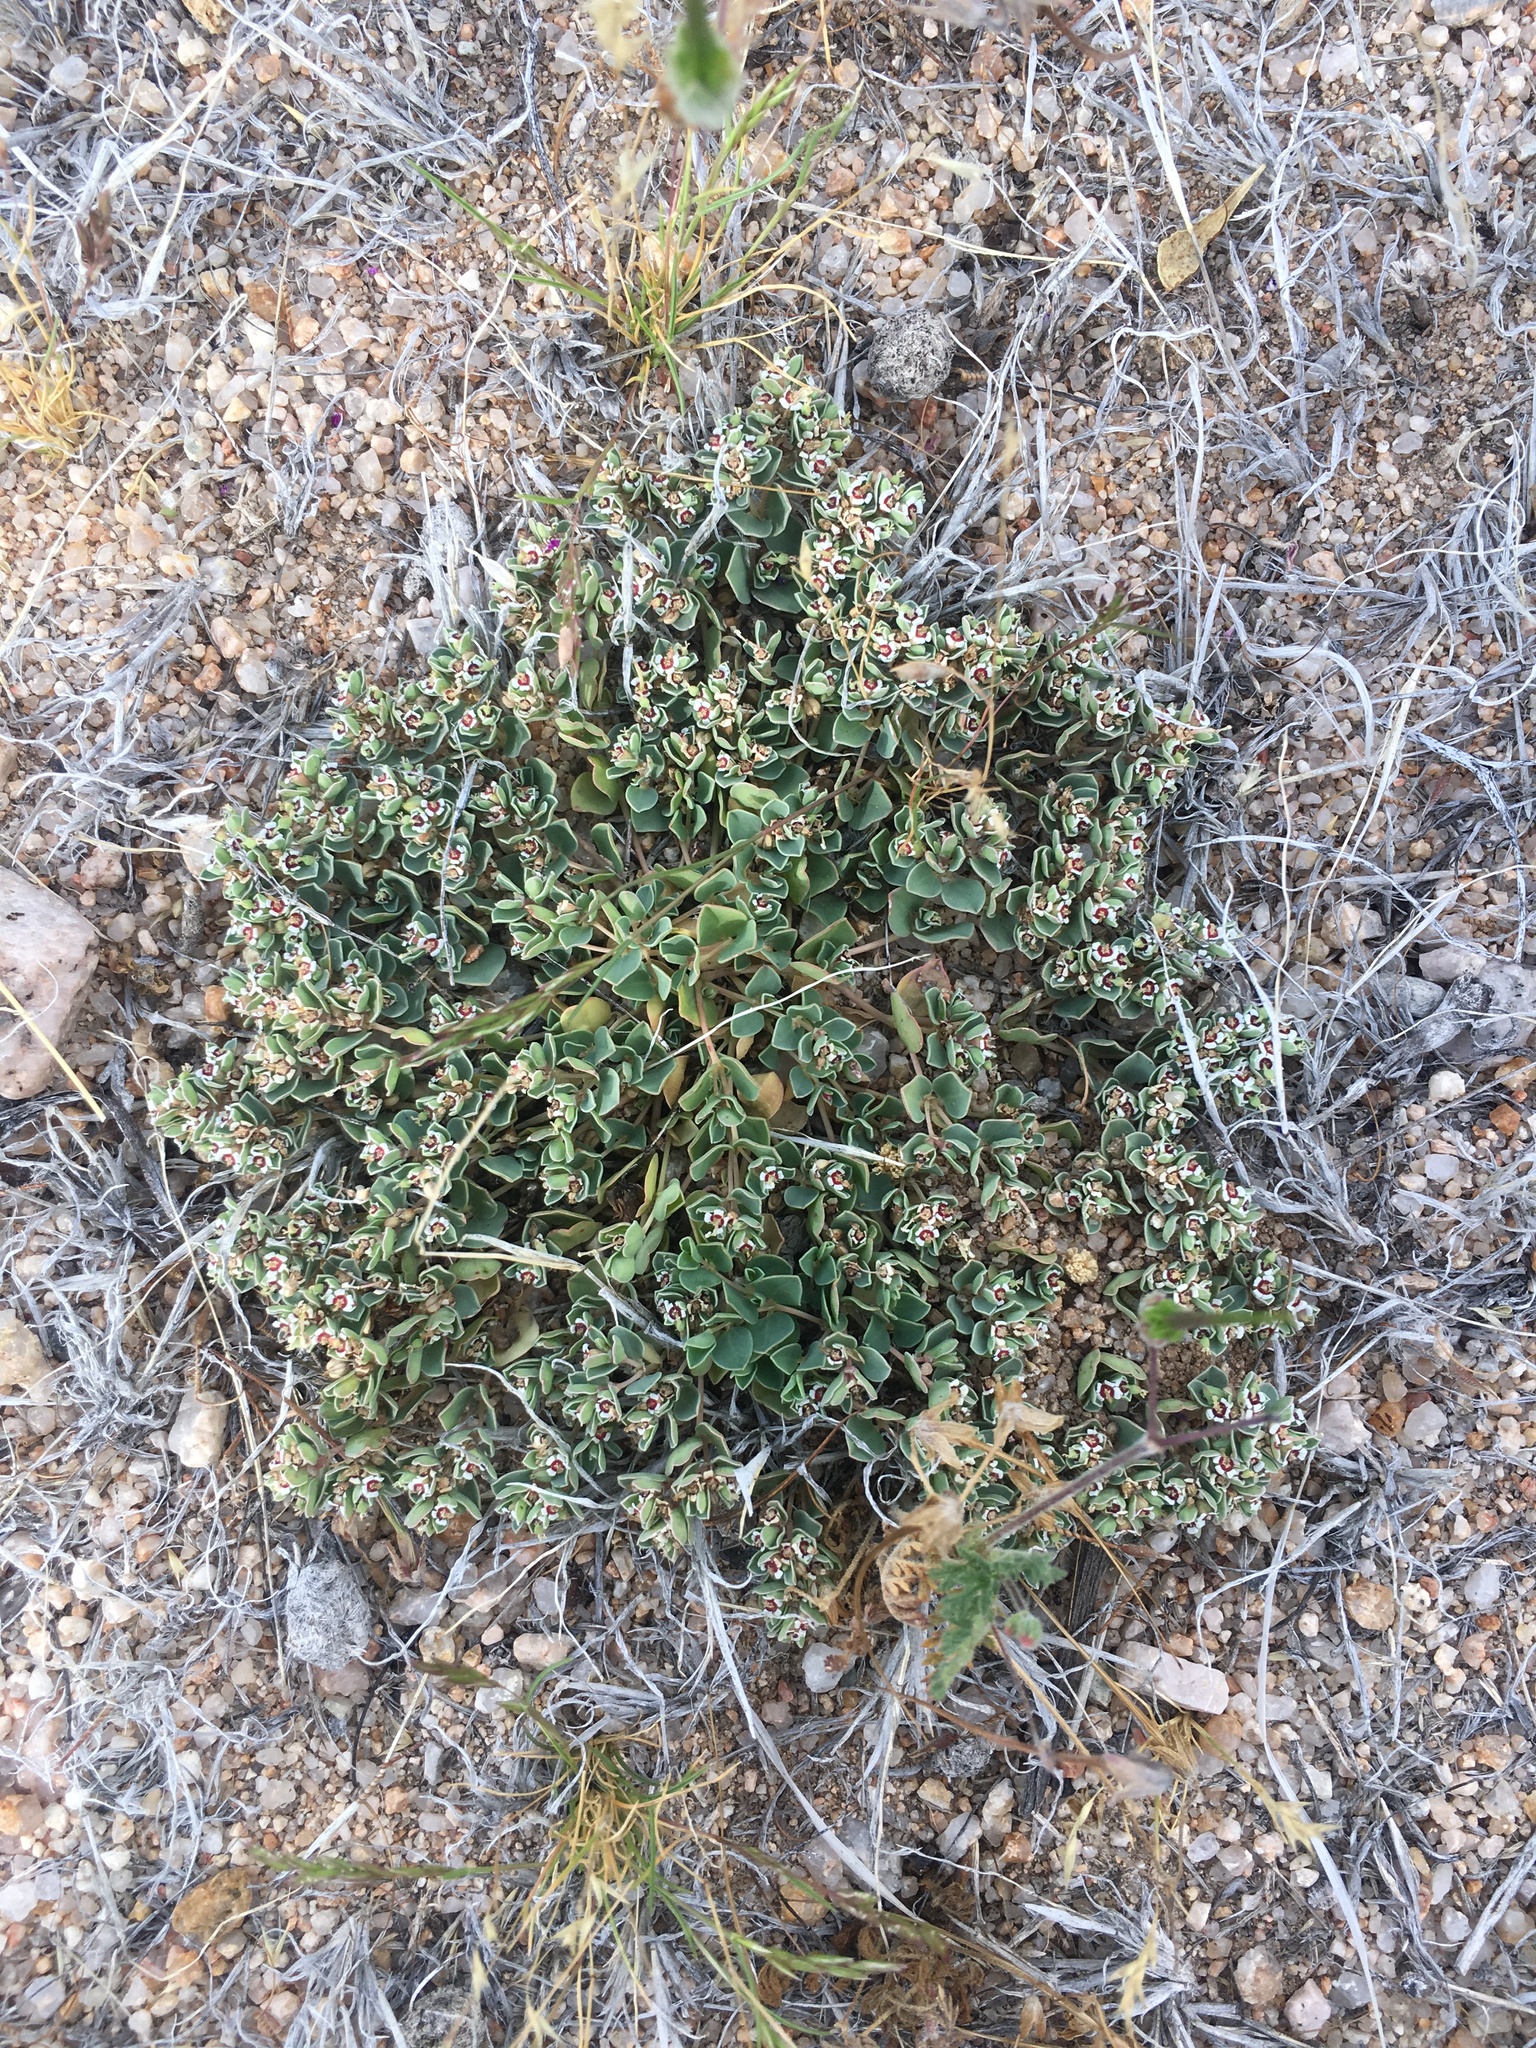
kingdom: Plantae
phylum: Tracheophyta
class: Magnoliopsida
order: Malpighiales
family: Euphorbiaceae
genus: Euphorbia
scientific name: Euphorbia albomarginata
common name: Whitemargin sandmat
